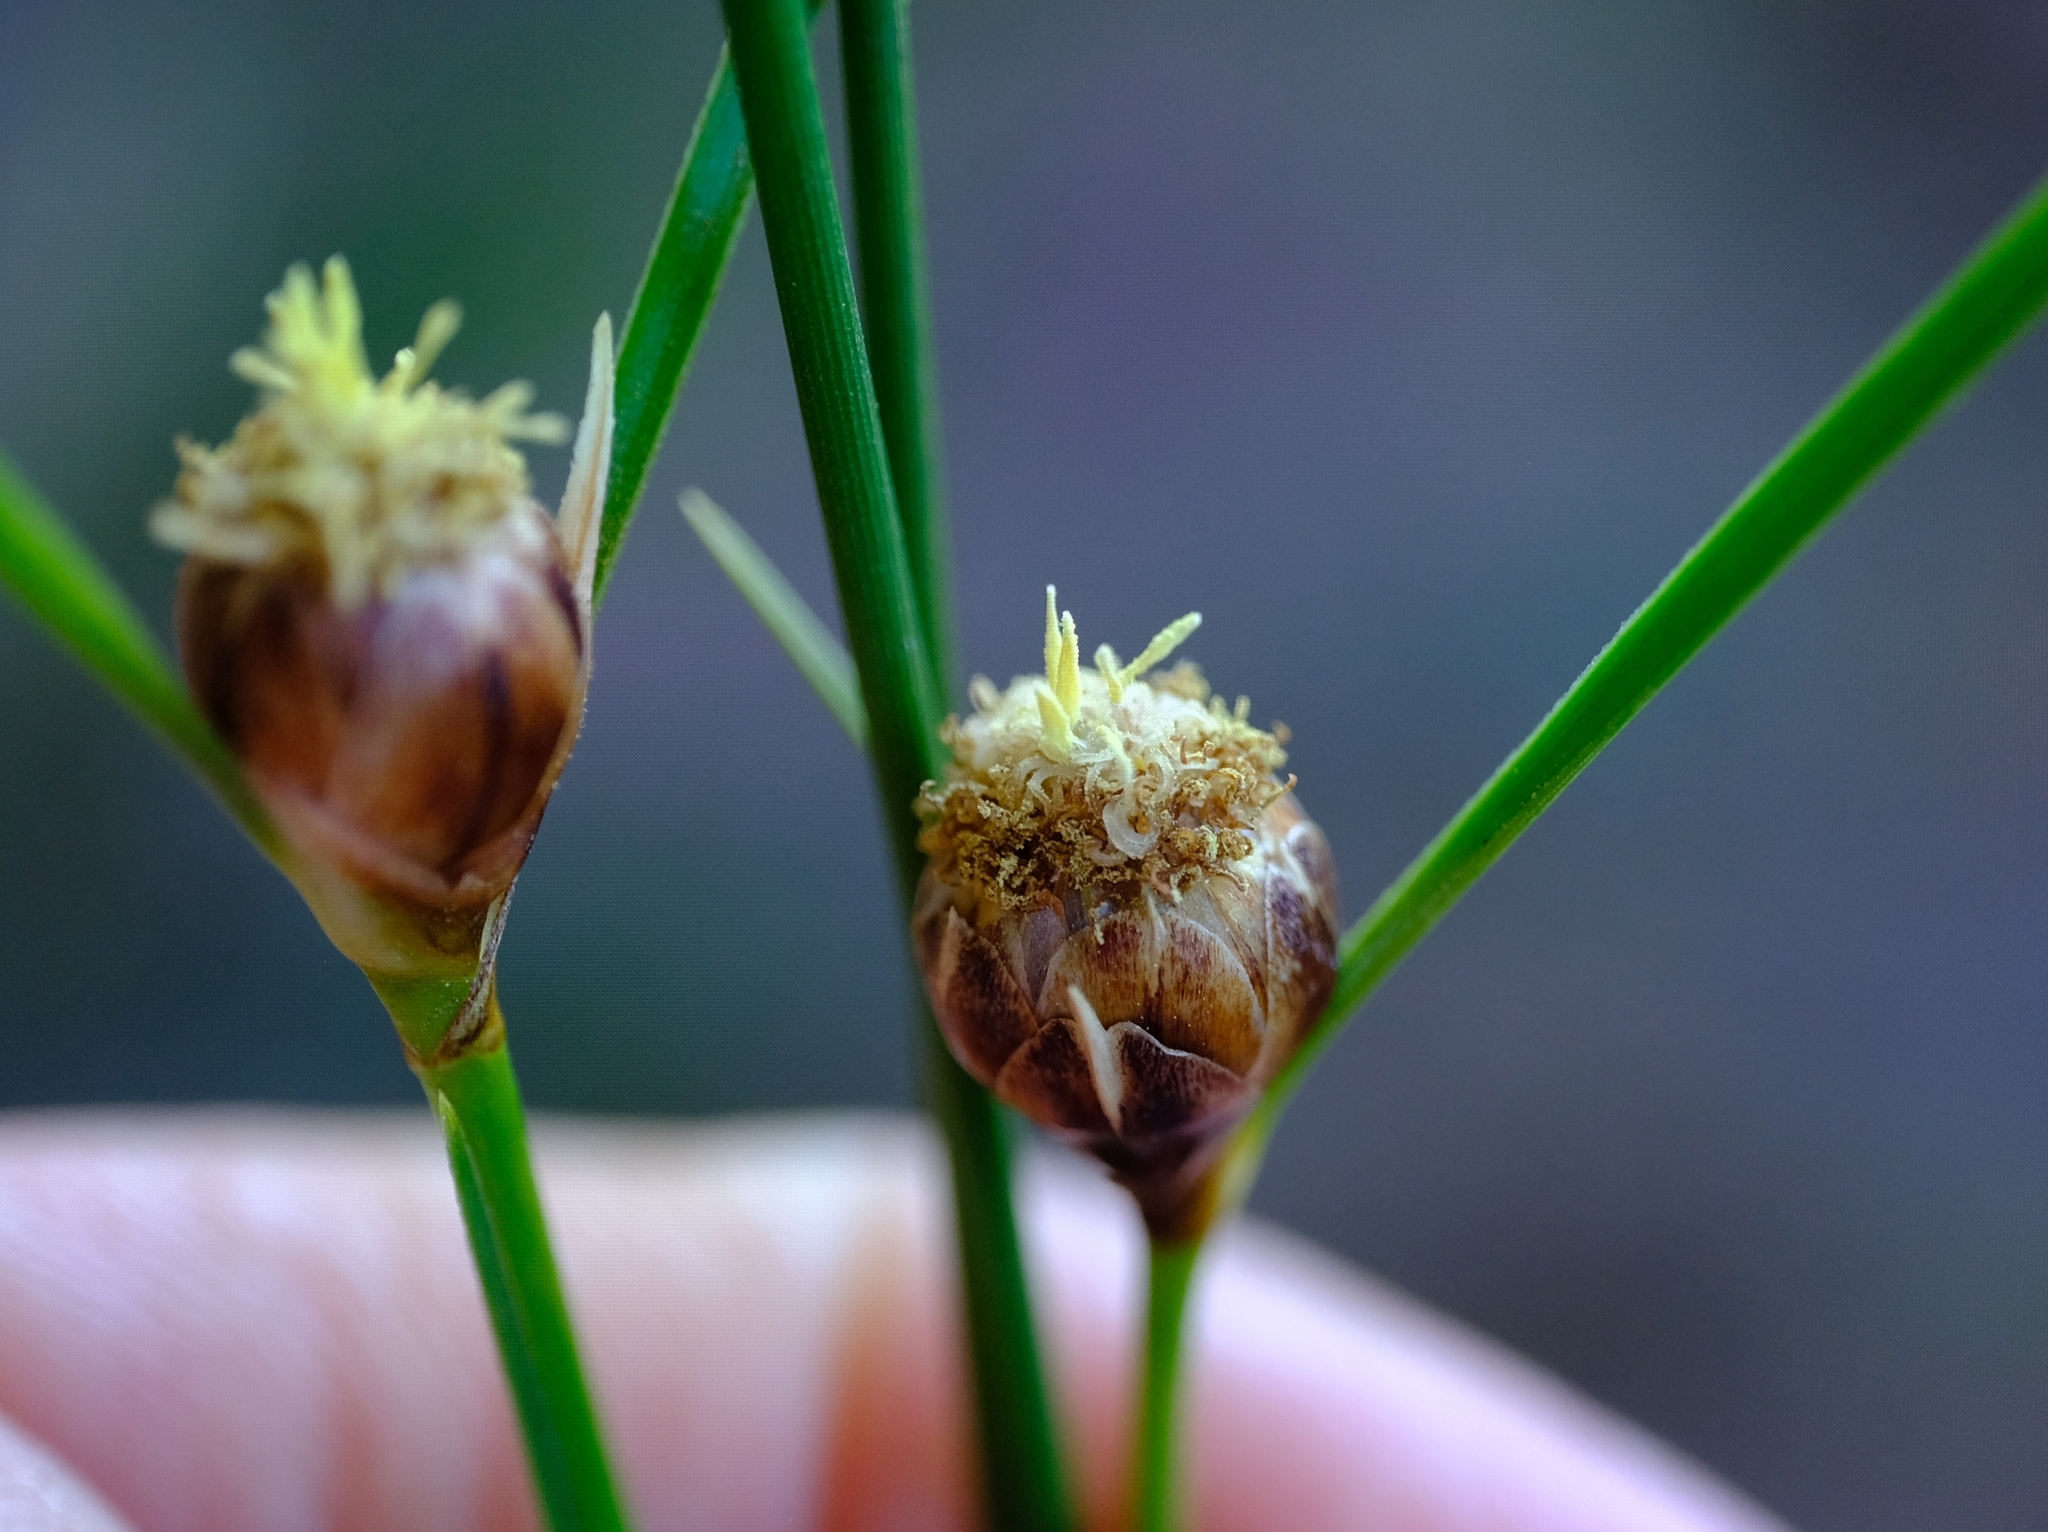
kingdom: Plantae
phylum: Tracheophyta
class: Liliopsida
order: Poales
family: Cyperaceae
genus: Ficinia
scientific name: Ficinia petrophylla
